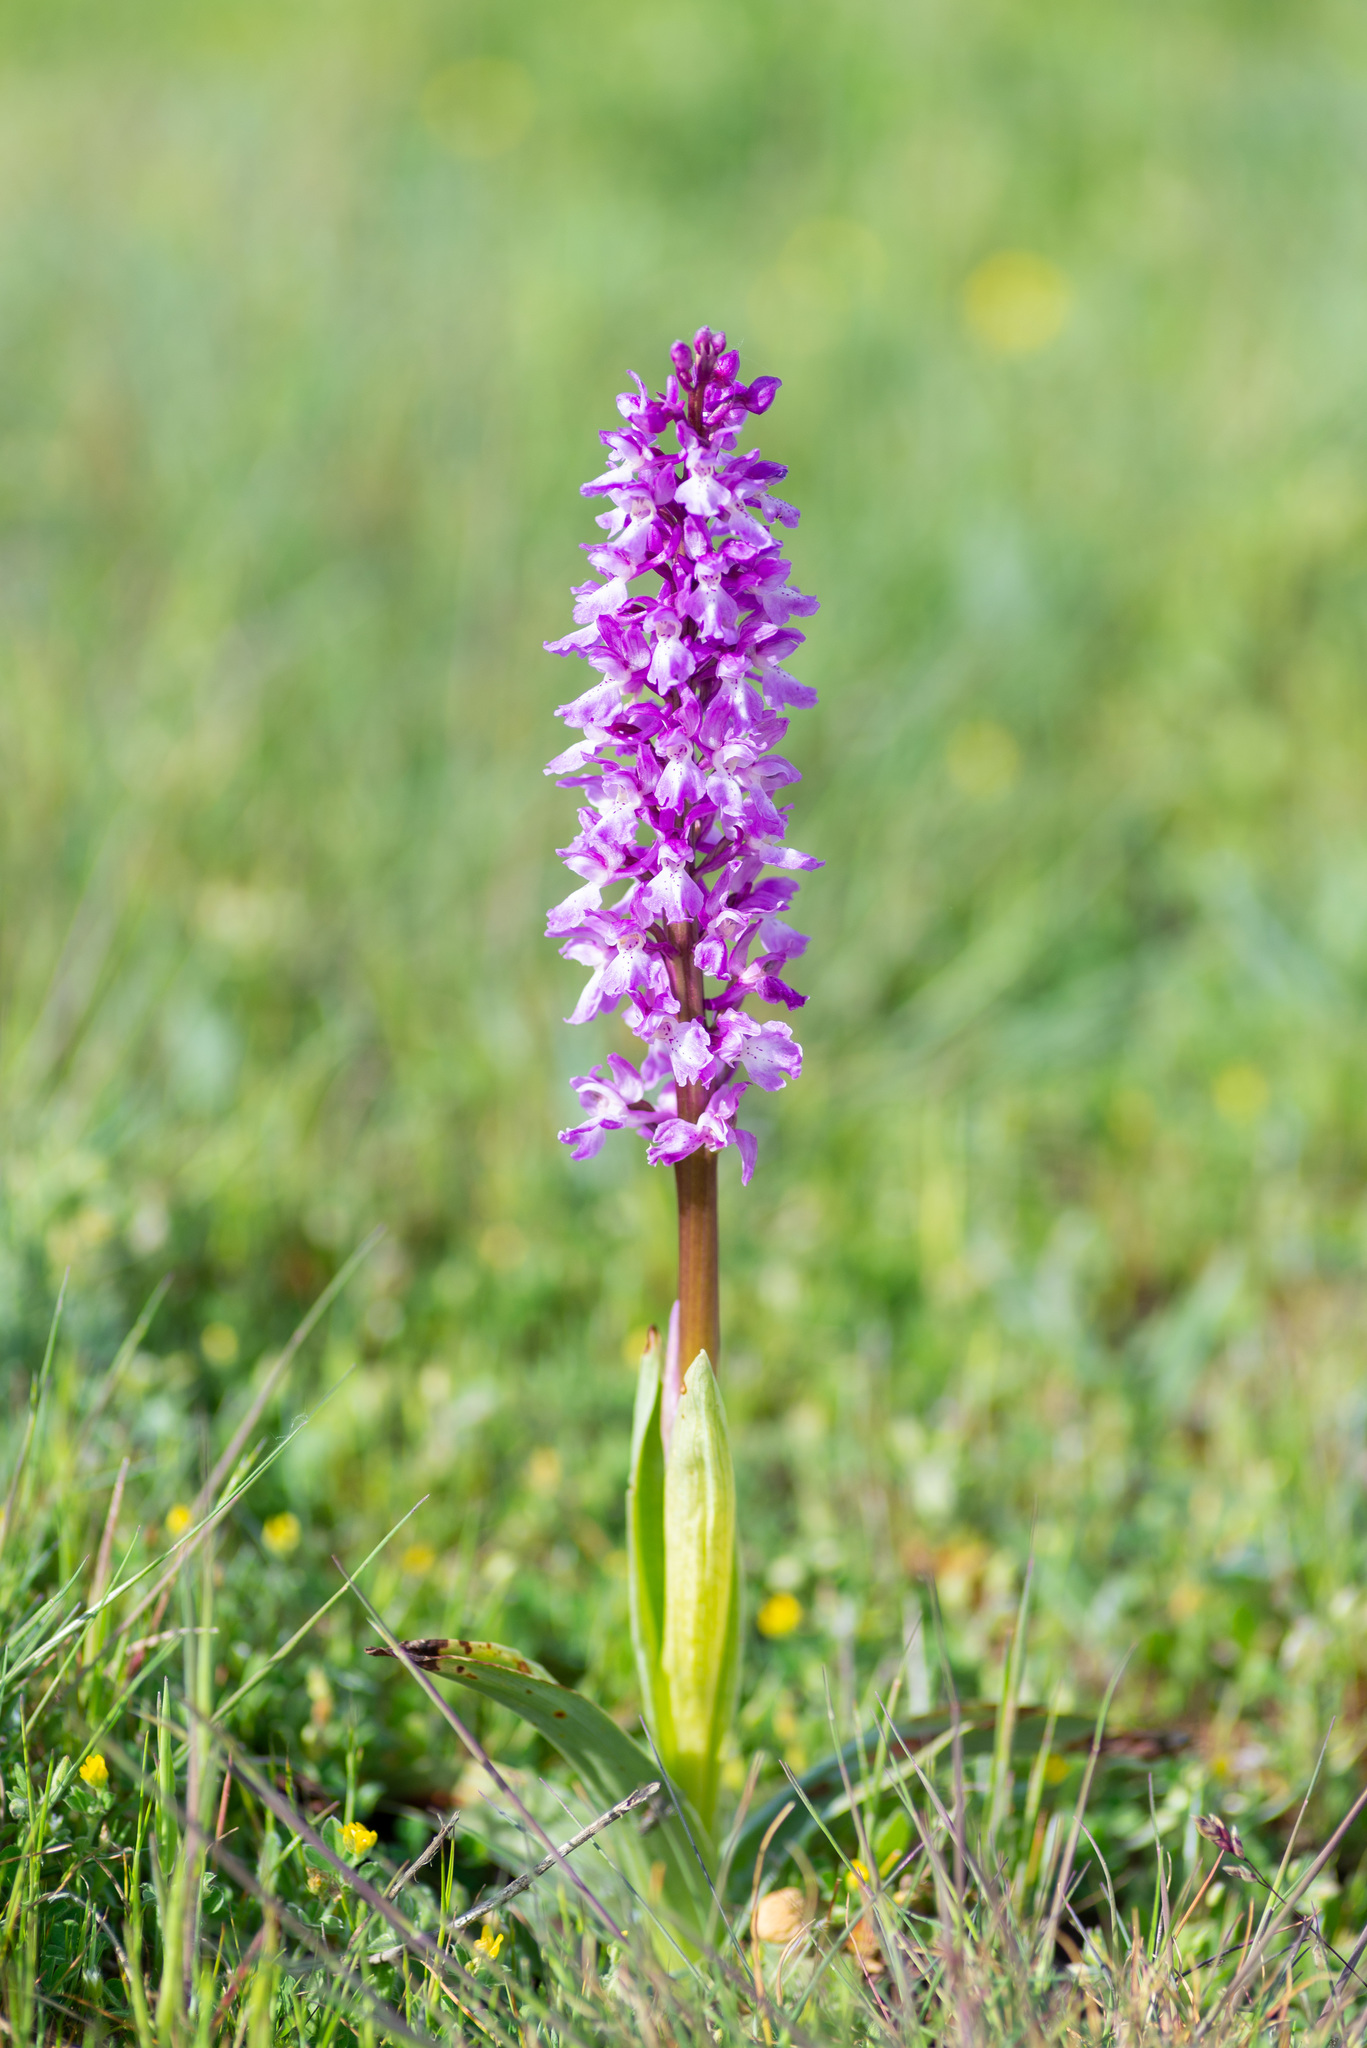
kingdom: Plantae
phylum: Tracheophyta
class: Liliopsida
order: Asparagales
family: Orchidaceae
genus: Orchis
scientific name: Orchis mascula
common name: Early-purple orchid
